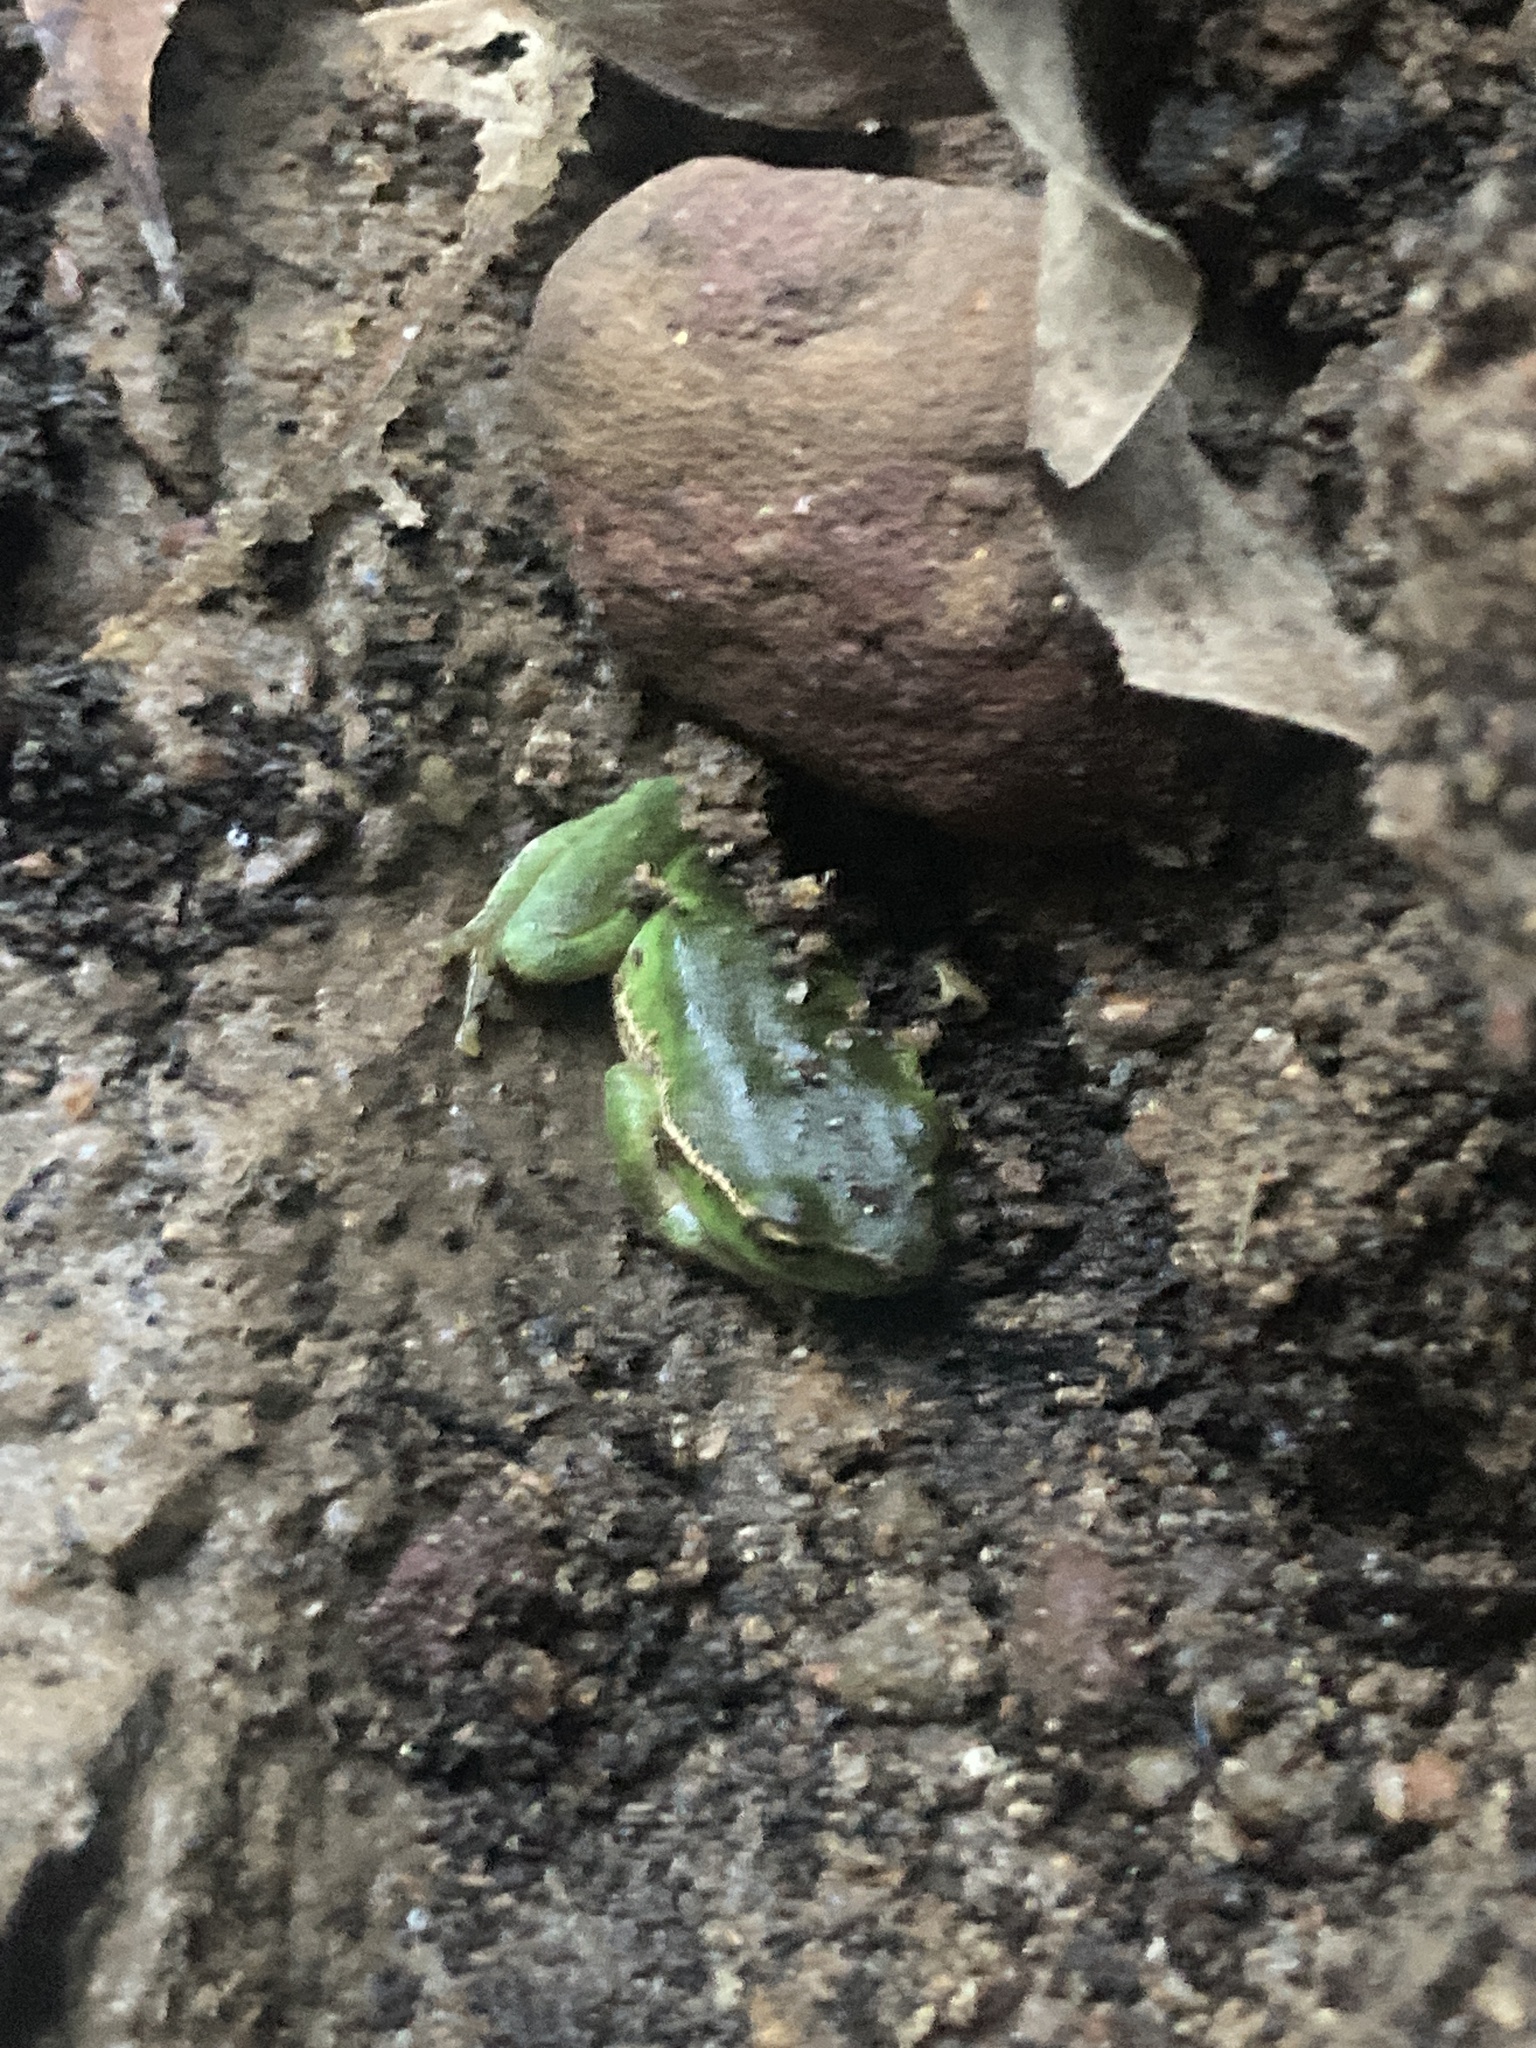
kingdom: Animalia
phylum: Chordata
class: Amphibia
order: Anura
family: Pelodryadidae
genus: Ranoidea
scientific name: Ranoidea phyllochroa
